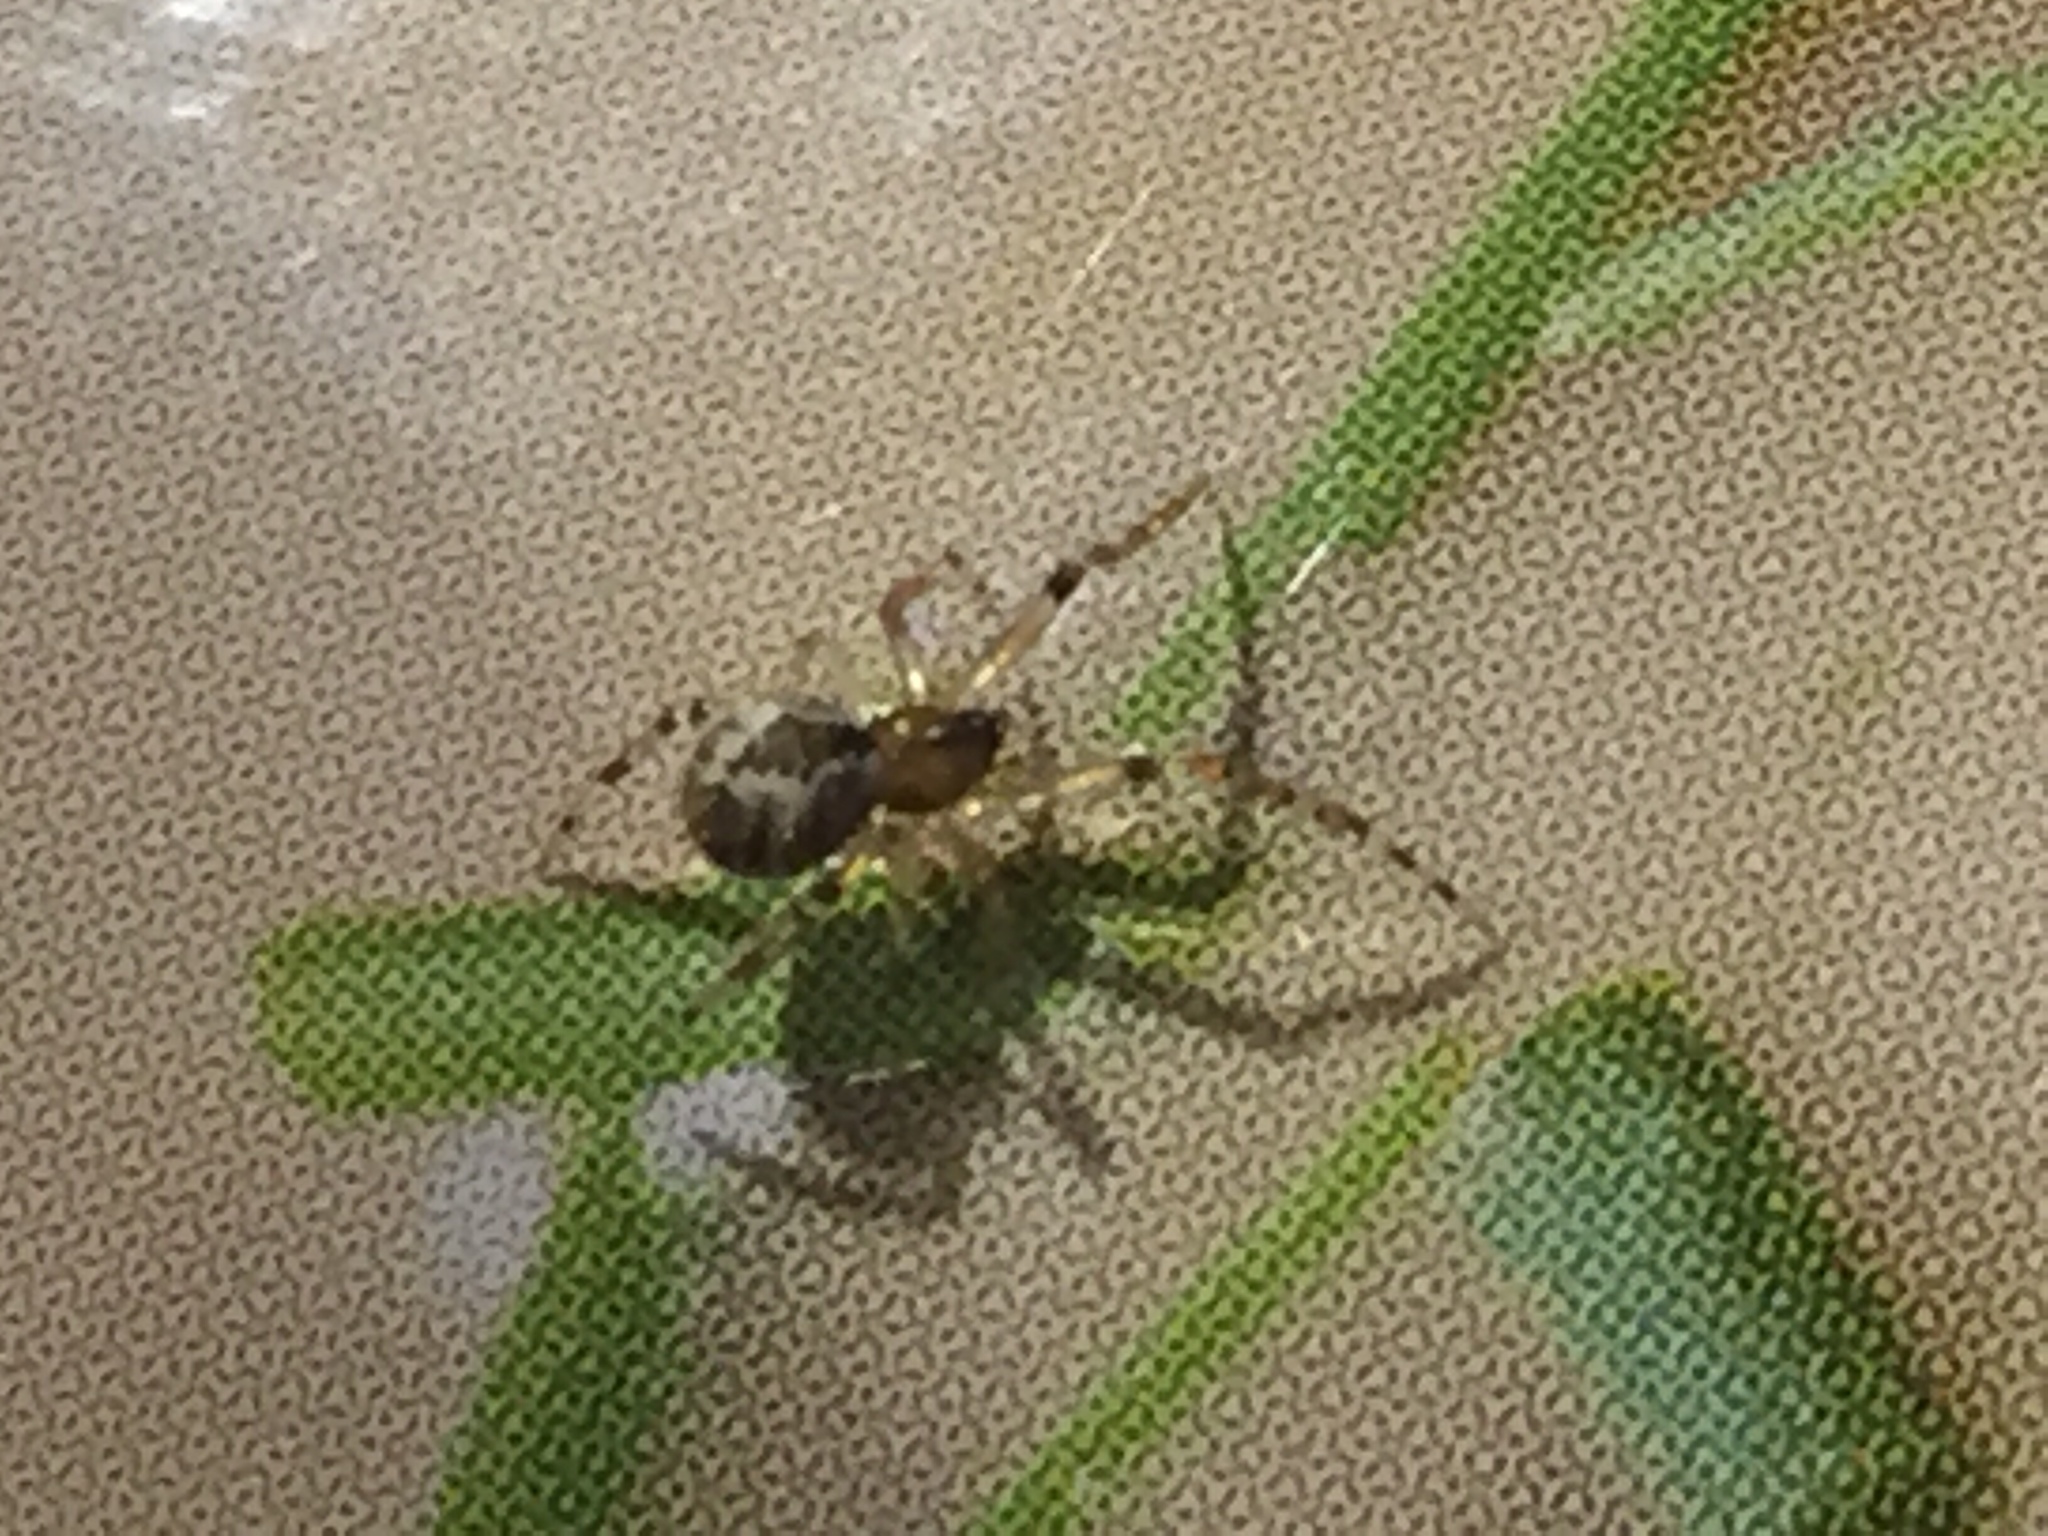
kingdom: Animalia
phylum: Arthropoda
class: Arachnida
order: Araneae
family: Theridiidae
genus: Cryptachaea
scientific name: Cryptachaea veruculata
